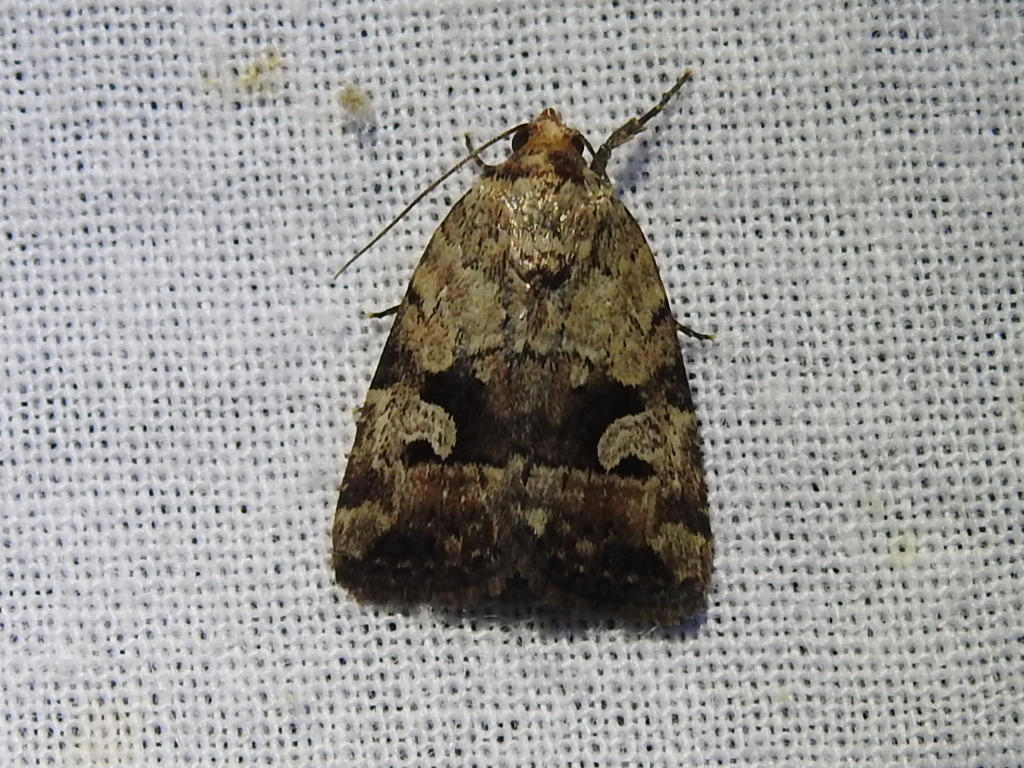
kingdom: Animalia
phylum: Arthropoda
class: Insecta
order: Lepidoptera
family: Noctuidae
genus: Elaphria
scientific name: Elaphria festivoides
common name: Festive midget
